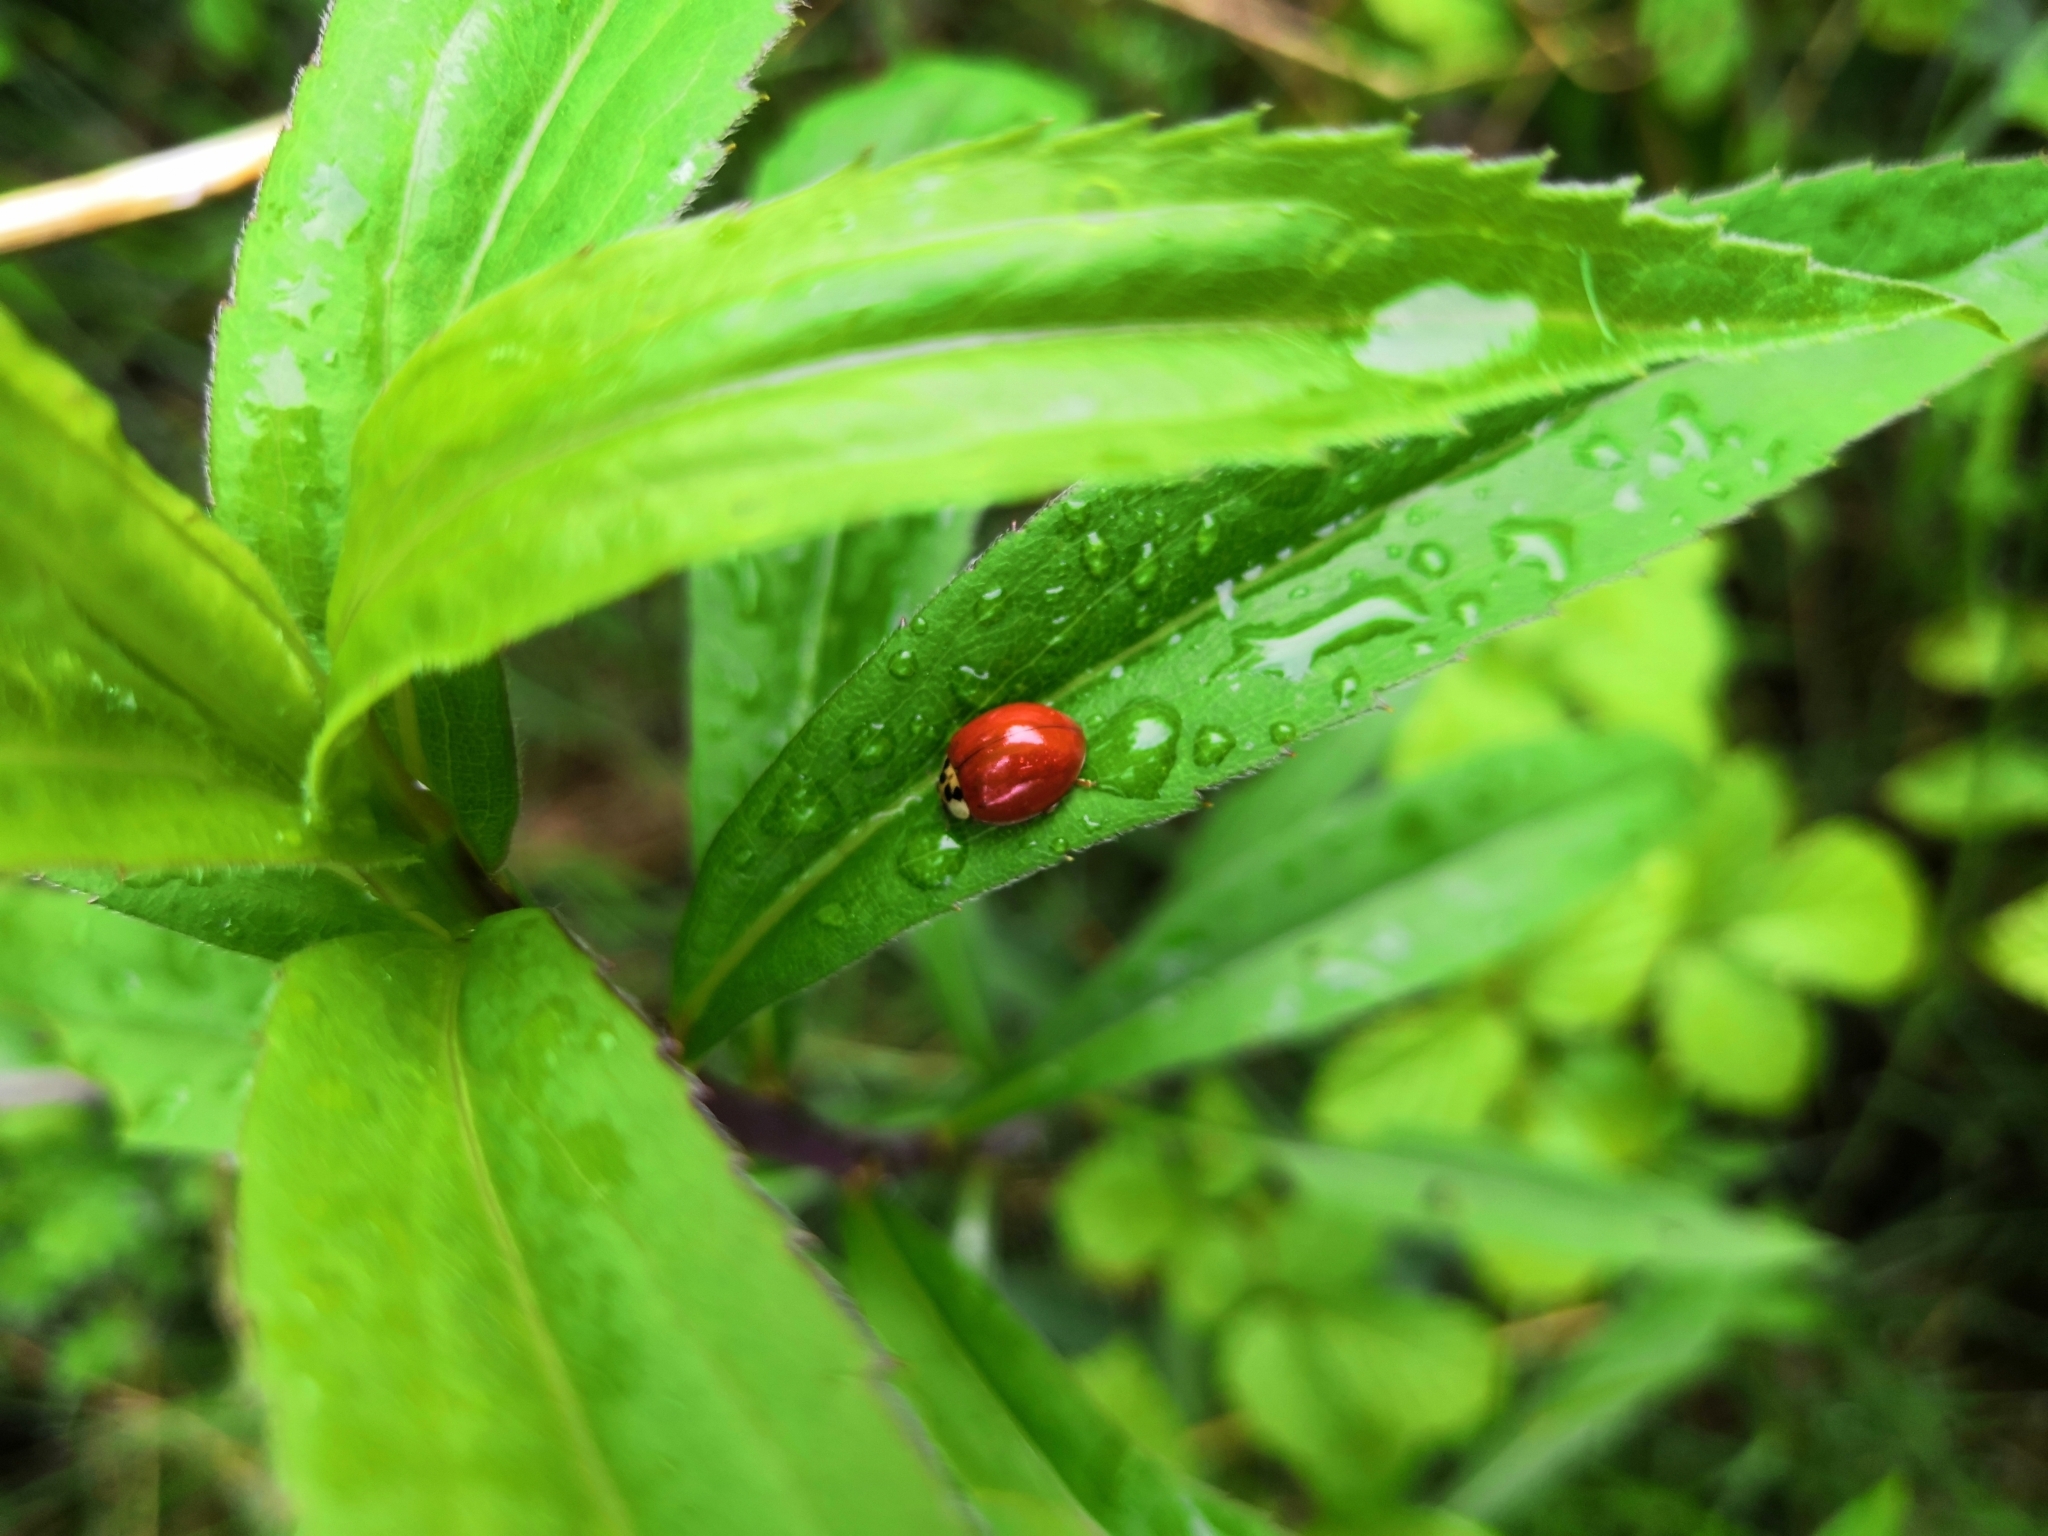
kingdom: Animalia
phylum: Arthropoda
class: Insecta
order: Coleoptera
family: Coccinellidae
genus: Harmonia
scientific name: Harmonia axyridis
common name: Harlequin ladybird
